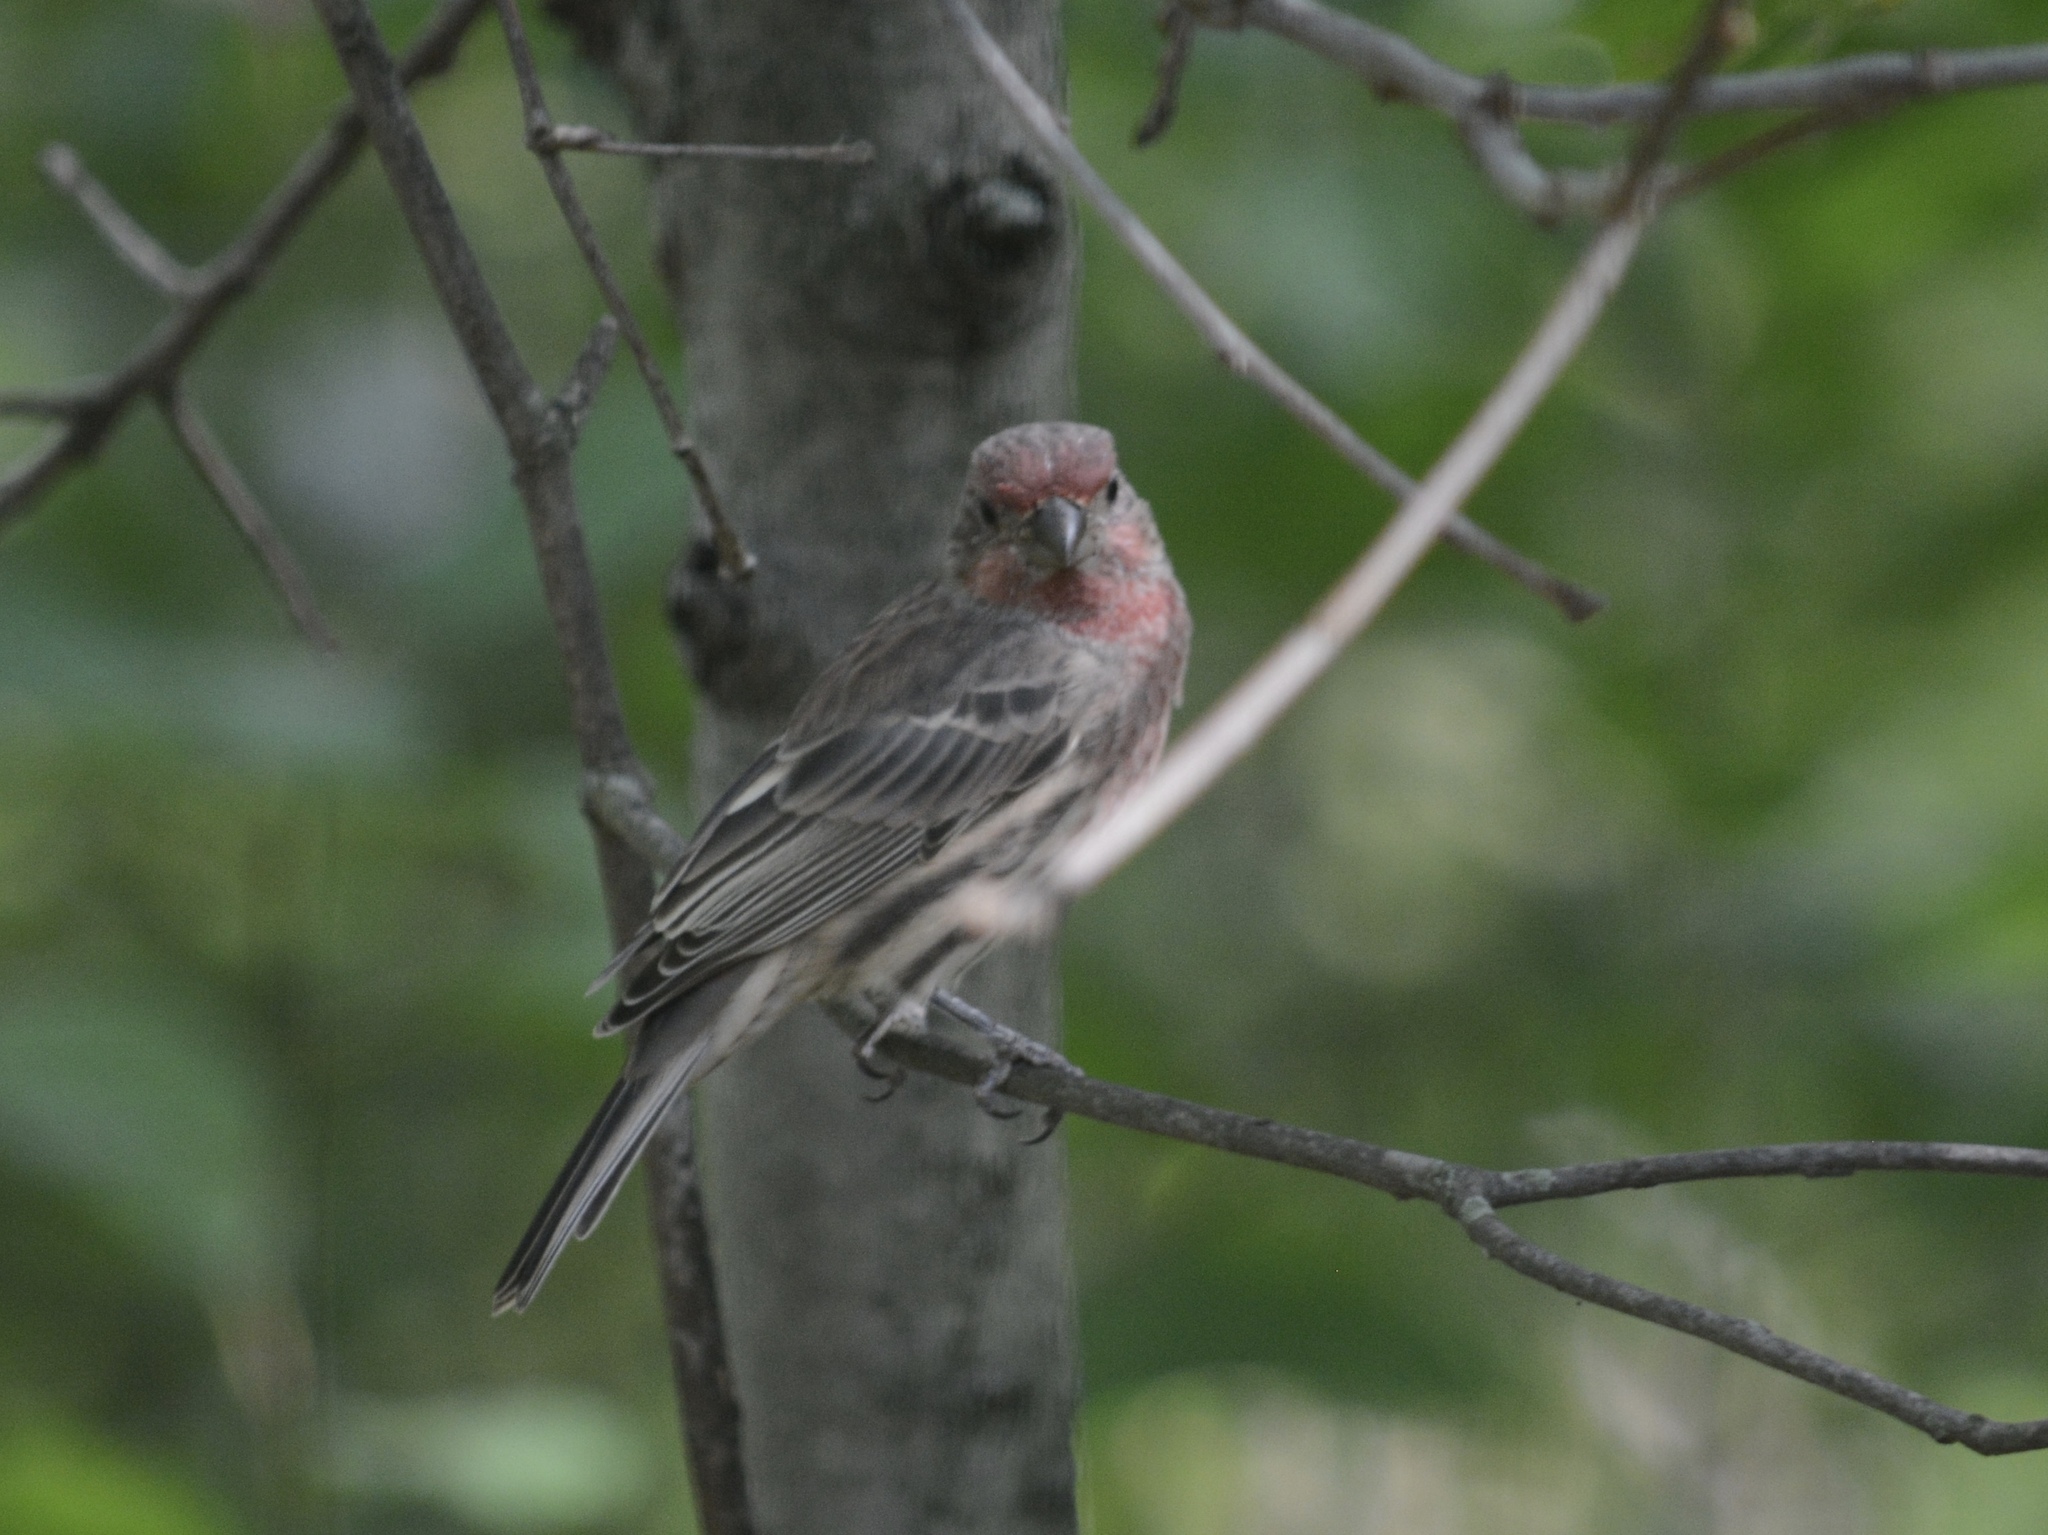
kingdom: Animalia
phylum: Chordata
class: Aves
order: Passeriformes
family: Fringillidae
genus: Haemorhous
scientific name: Haemorhous mexicanus
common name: House finch
